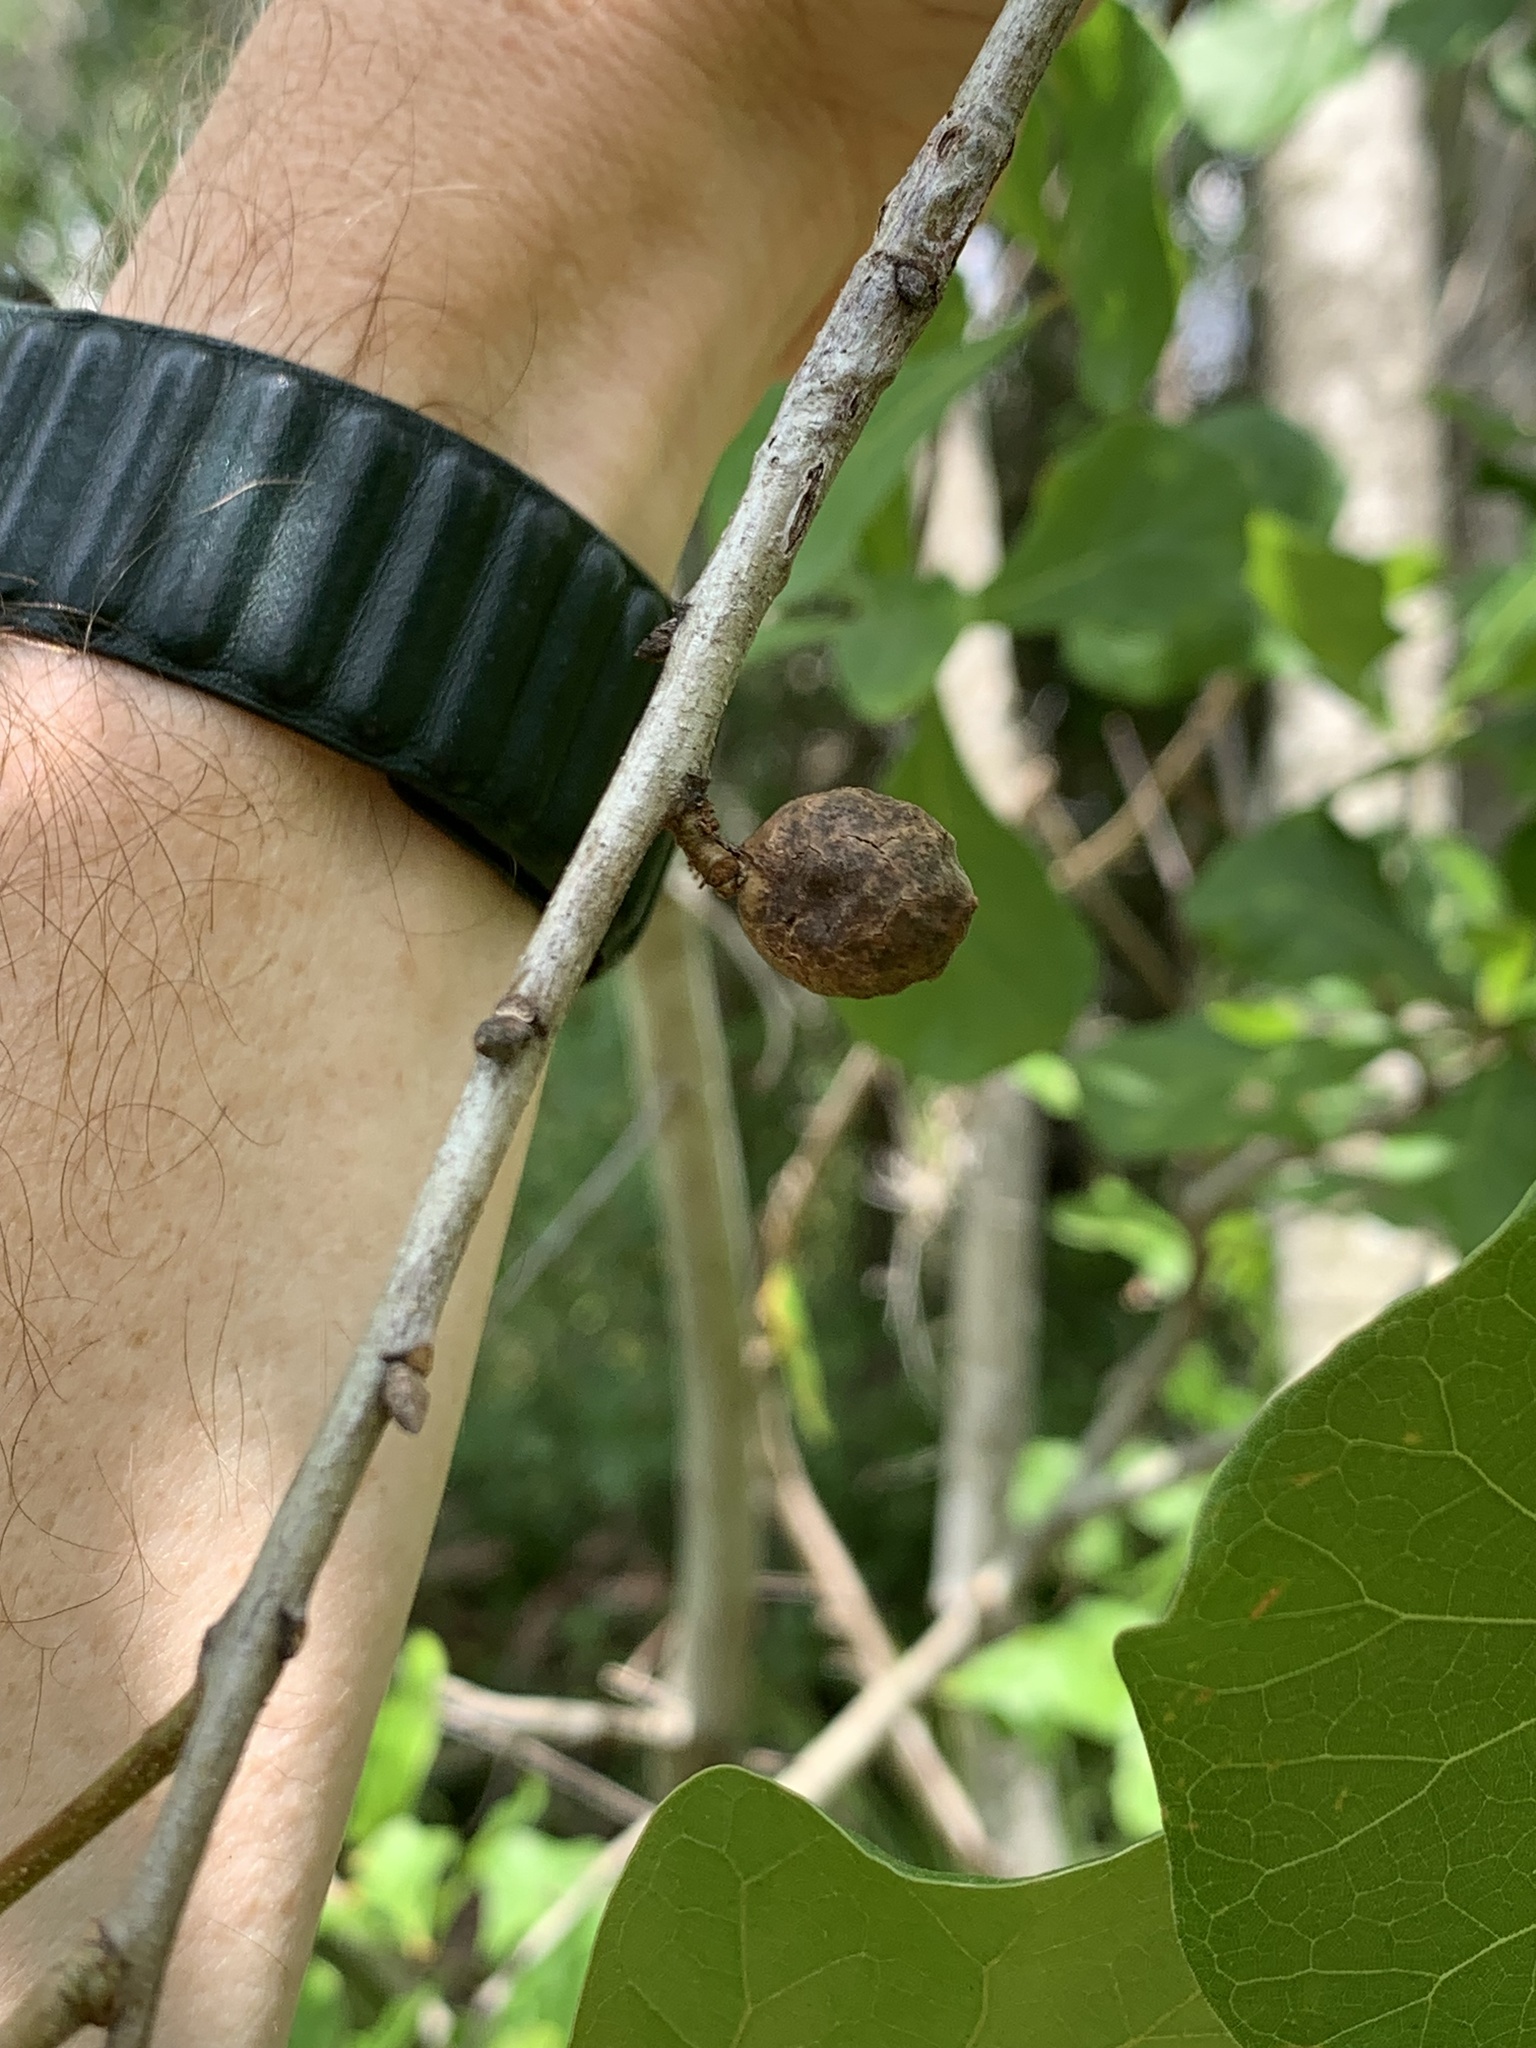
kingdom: Animalia
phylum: Arthropoda
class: Insecta
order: Hymenoptera
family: Cynipidae
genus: Amphibolips
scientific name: Amphibolips
